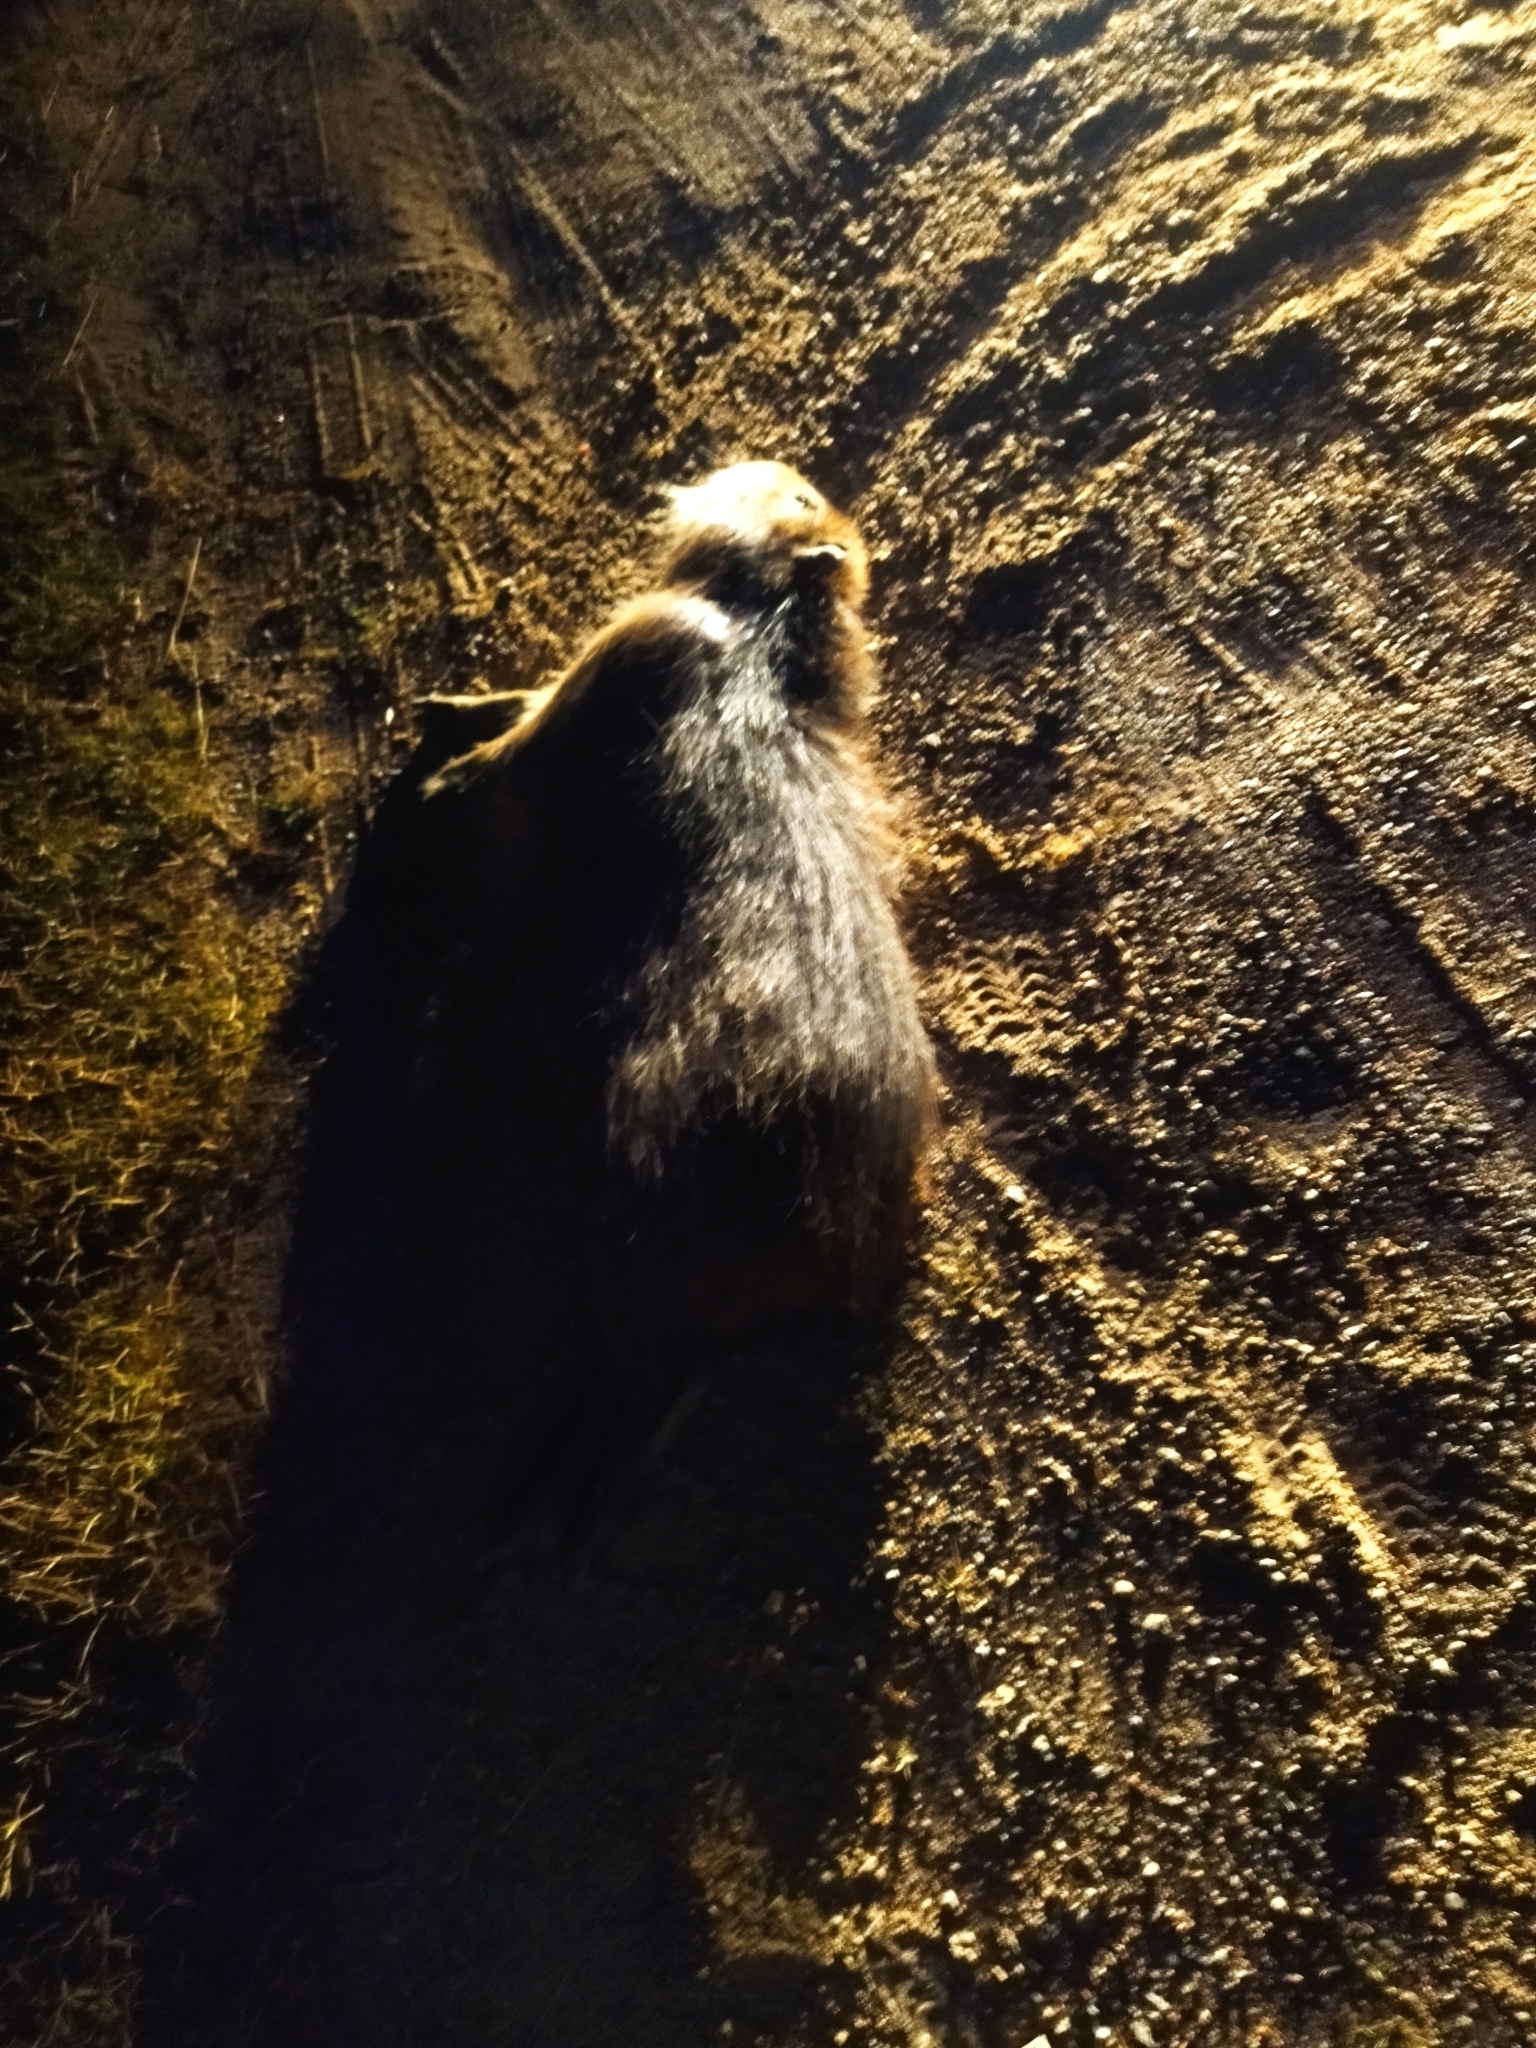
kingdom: Animalia
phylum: Chordata
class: Mammalia
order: Rodentia
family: Caviidae
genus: Hydrochoerus
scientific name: Hydrochoerus hydrochaeris
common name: Capybara
